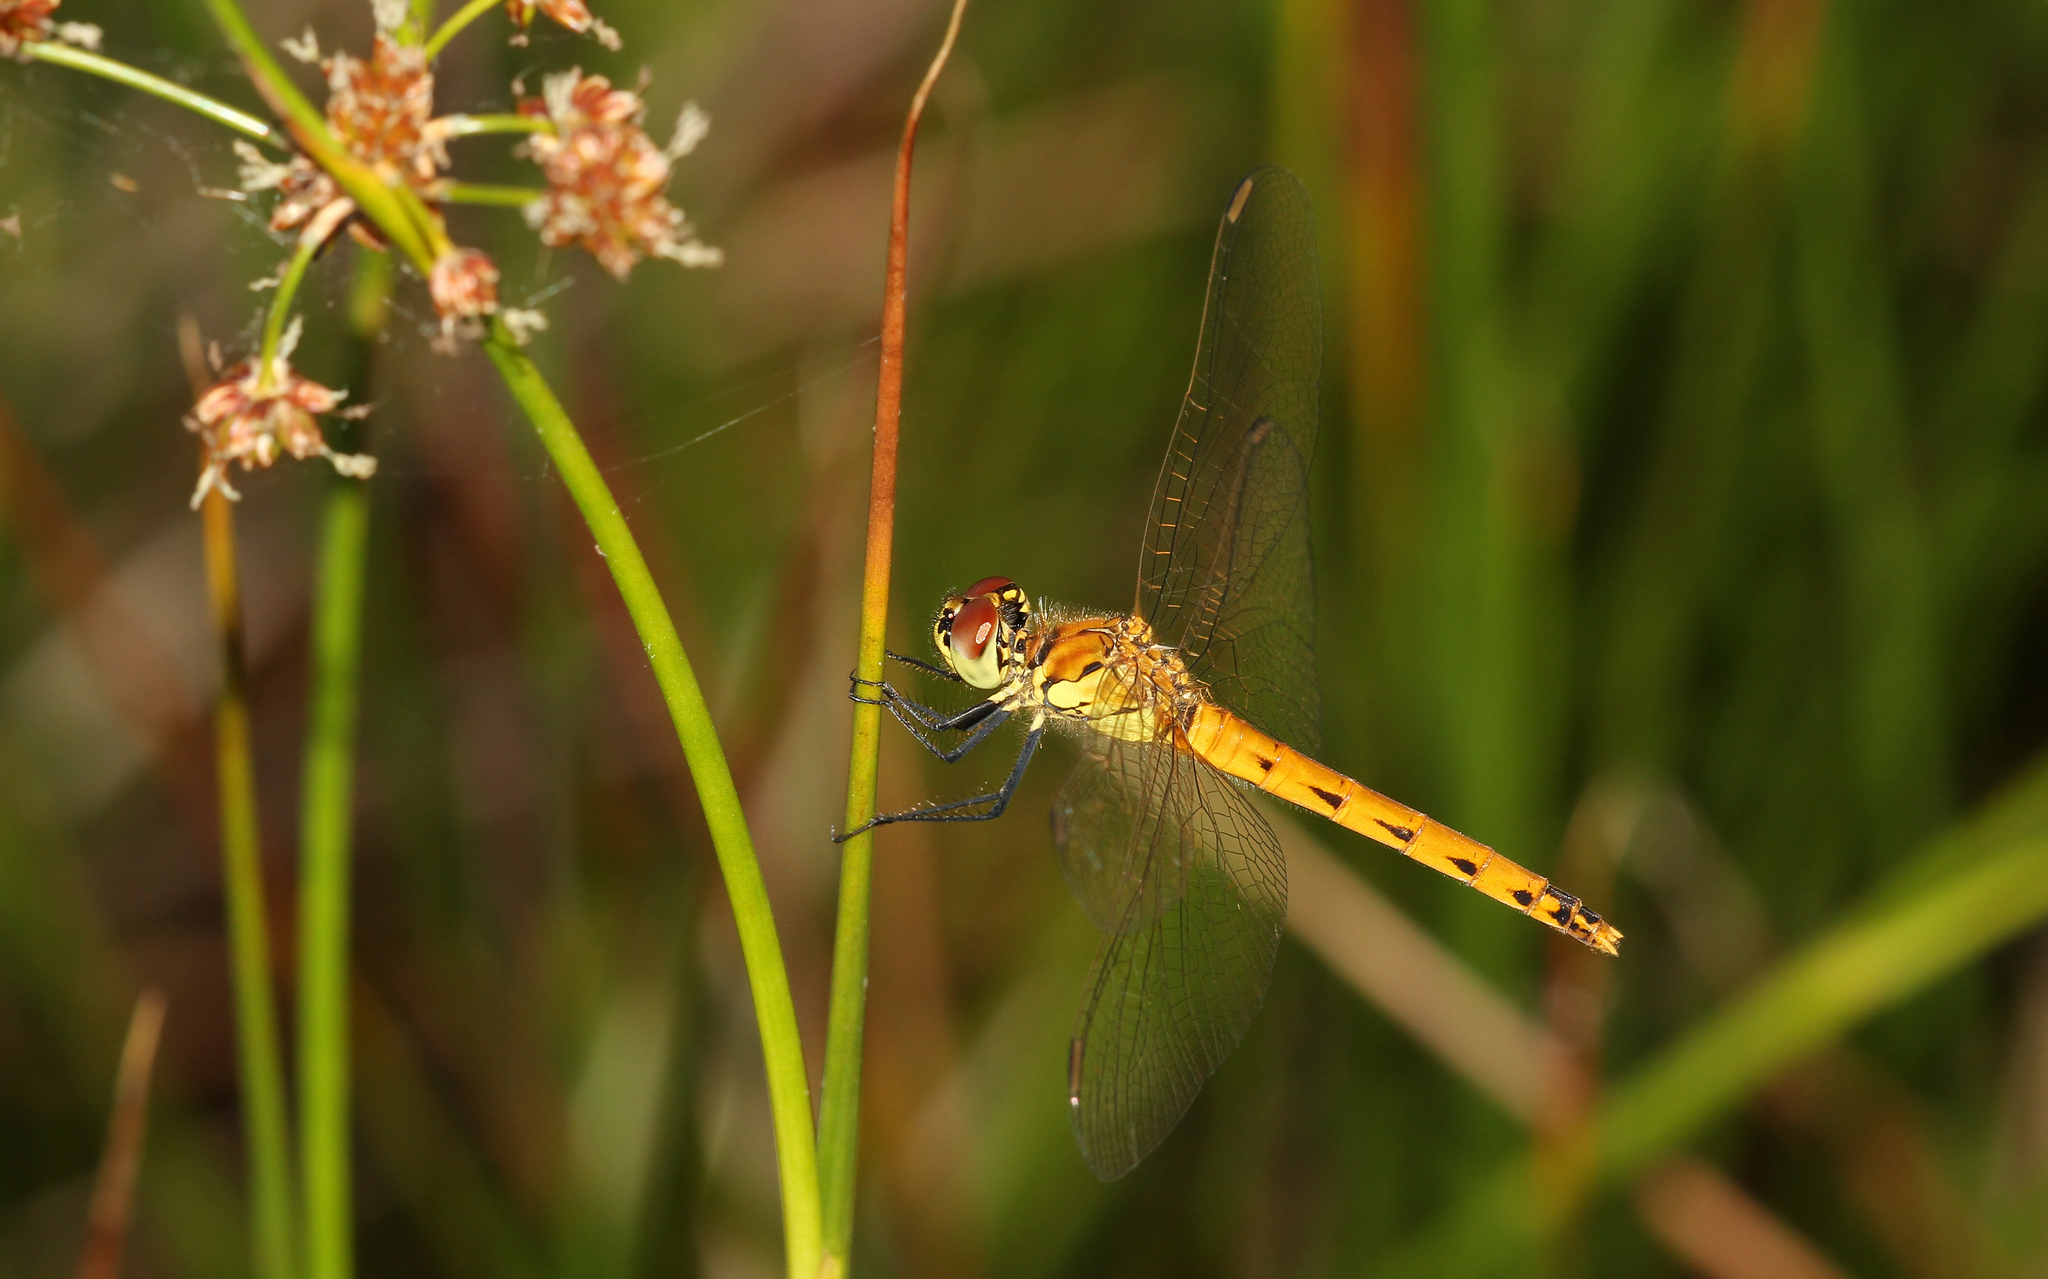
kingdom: Animalia
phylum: Arthropoda
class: Insecta
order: Odonata
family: Libellulidae
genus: Sympetrum
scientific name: Sympetrum depressiusculum
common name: Spotted darter
